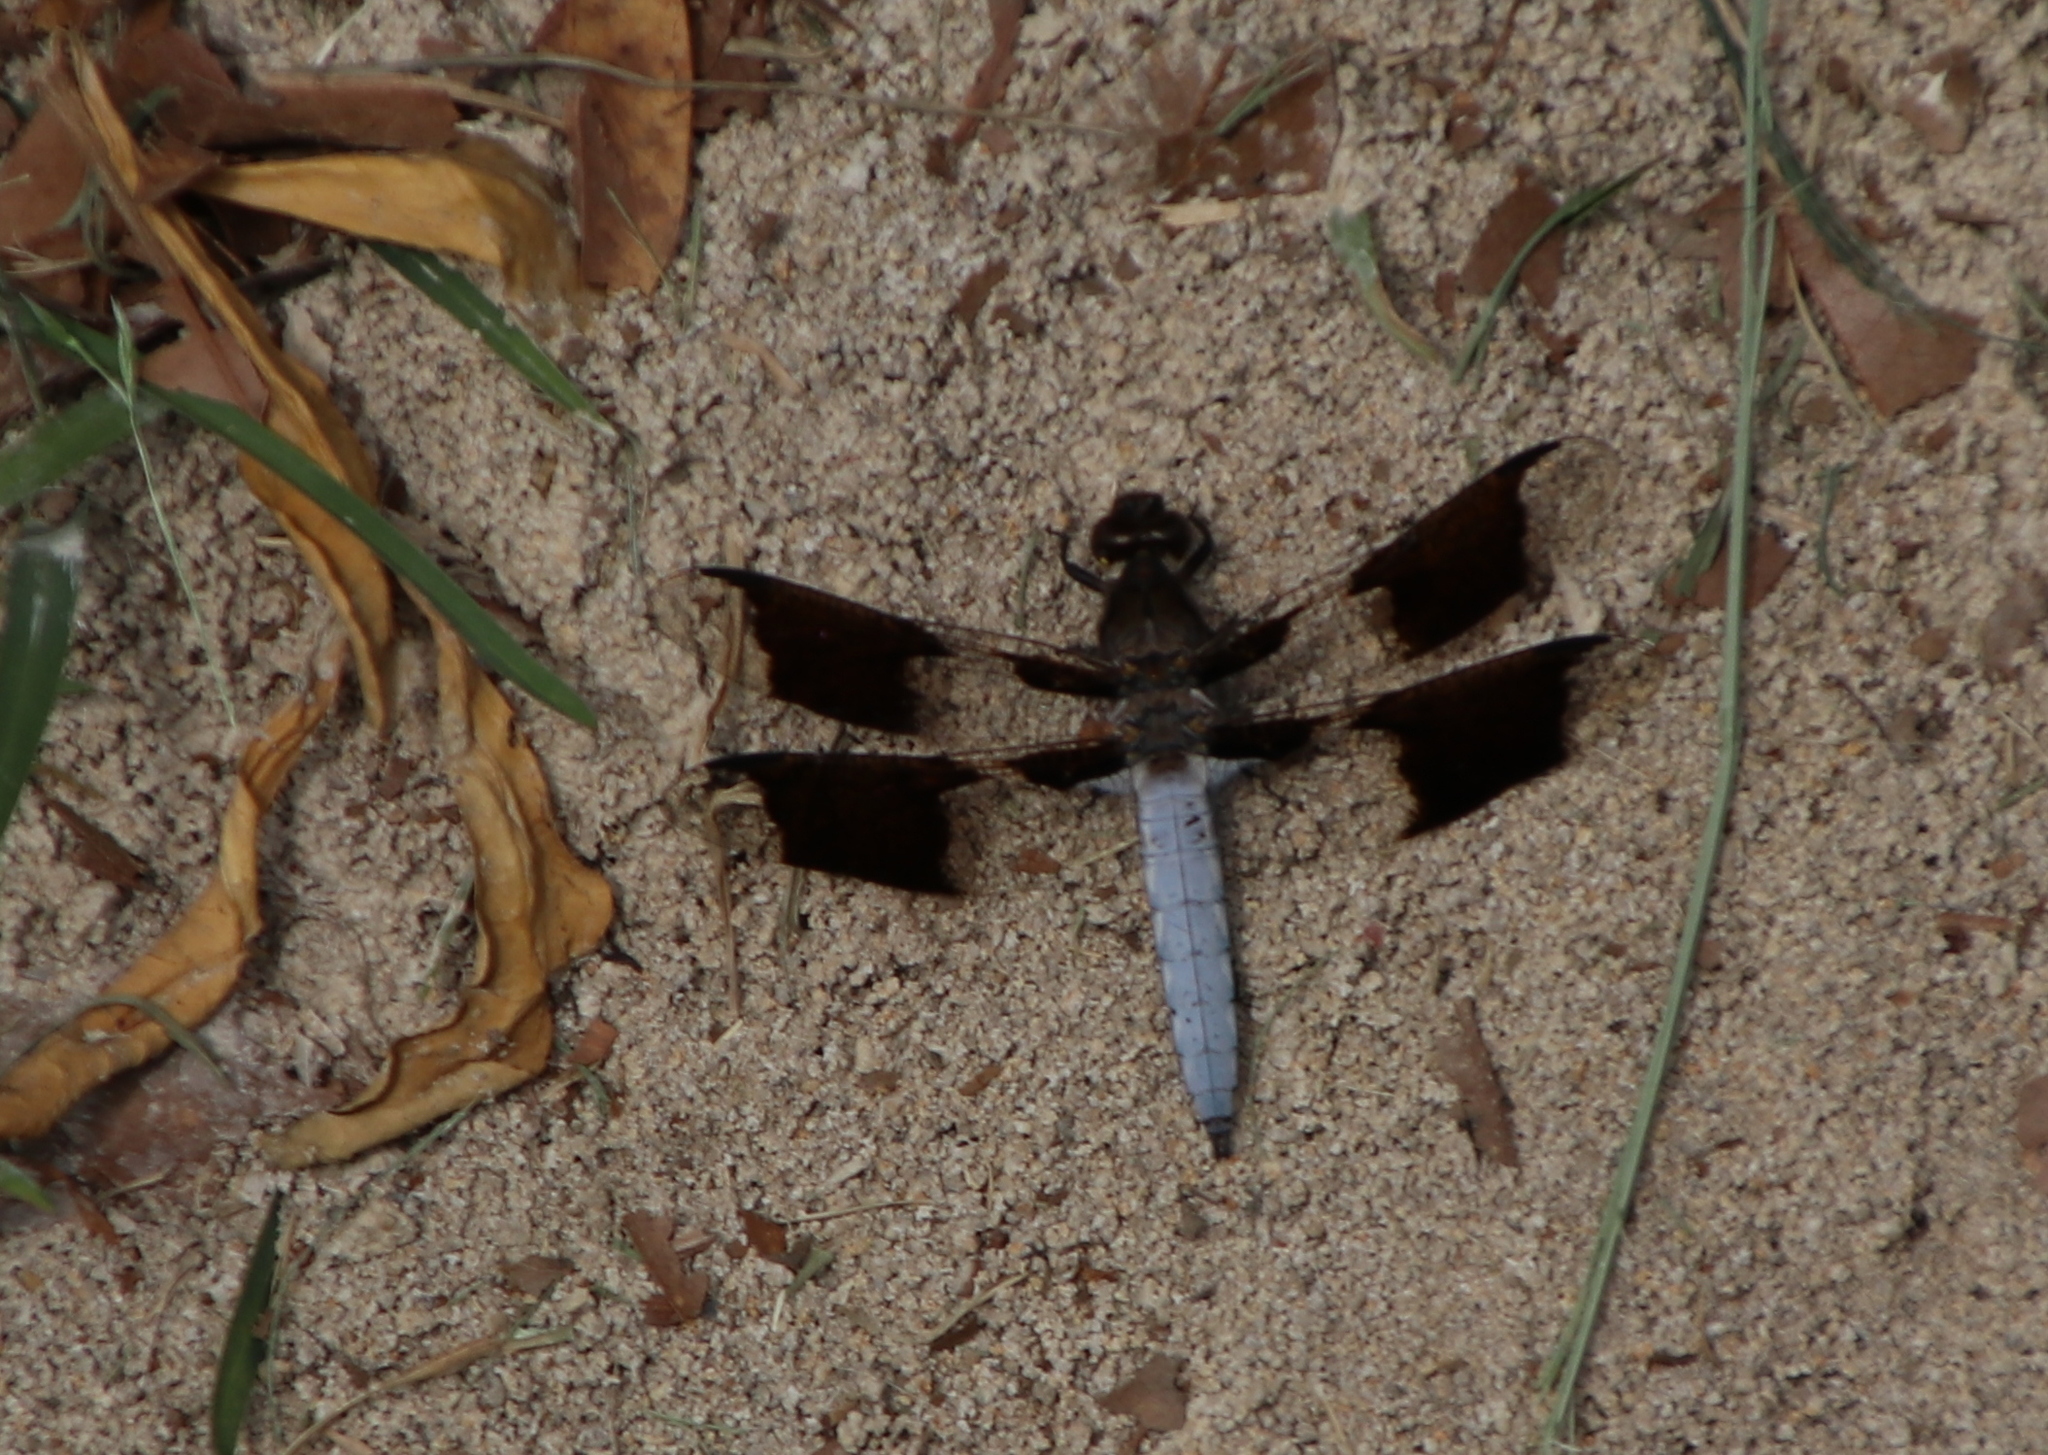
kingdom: Animalia
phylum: Arthropoda
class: Insecta
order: Odonata
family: Libellulidae
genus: Plathemis
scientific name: Plathemis lydia
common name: Common whitetail
